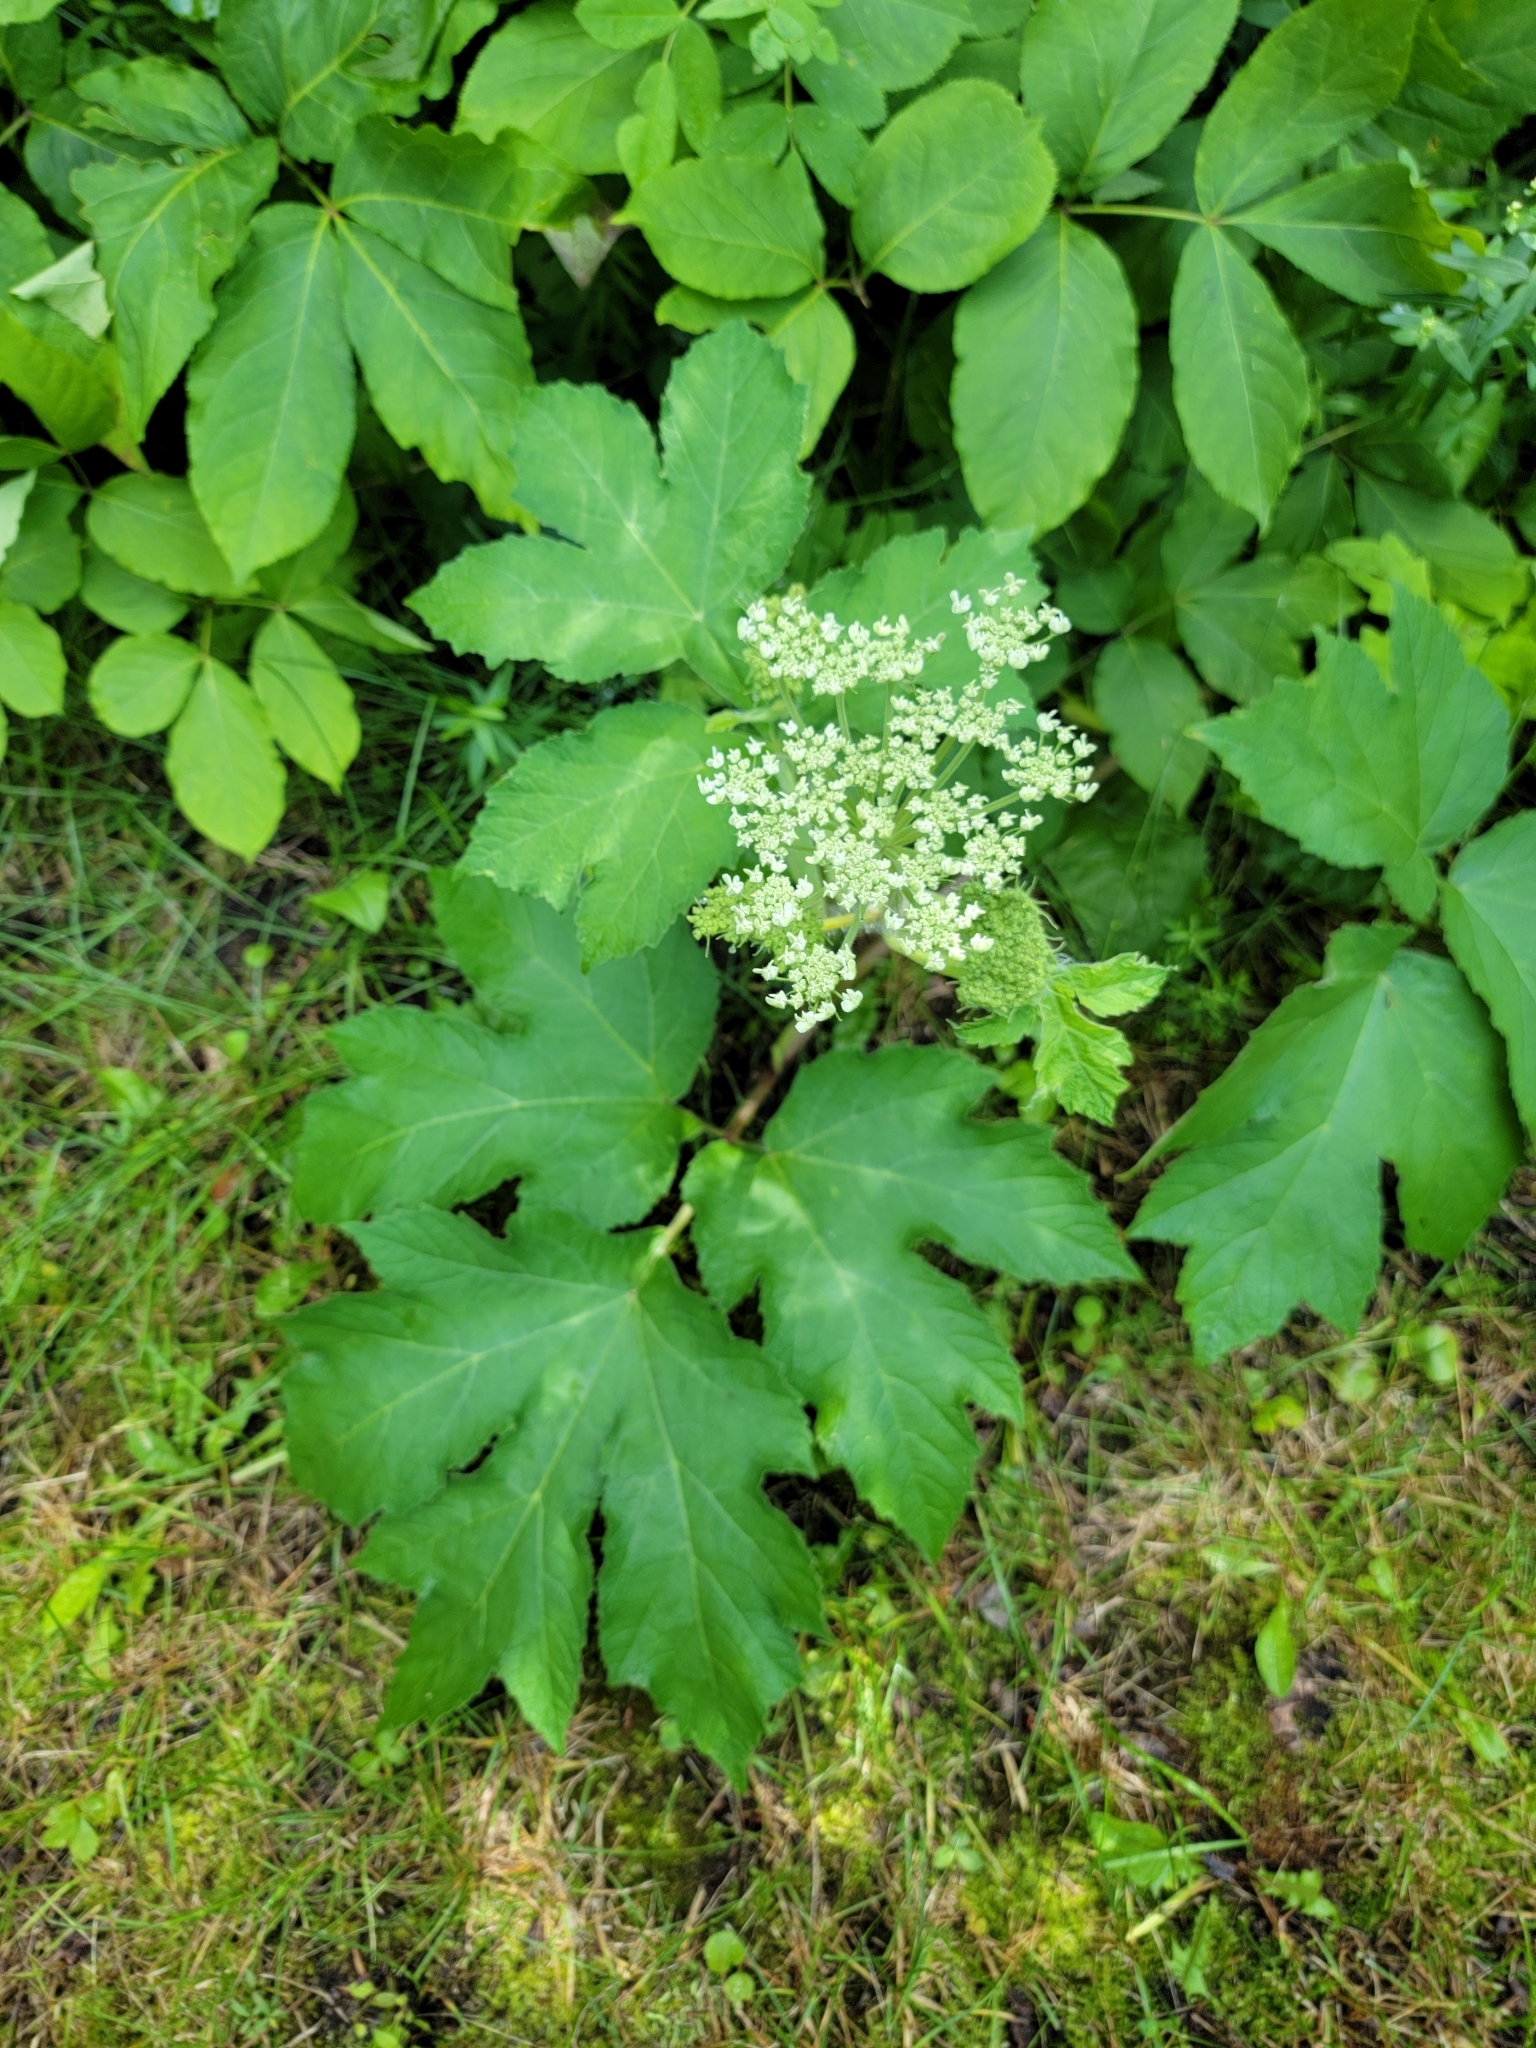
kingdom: Plantae
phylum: Tracheophyta
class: Magnoliopsida
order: Apiales
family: Apiaceae
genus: Heracleum
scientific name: Heracleum maximum
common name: American cow parsnip
